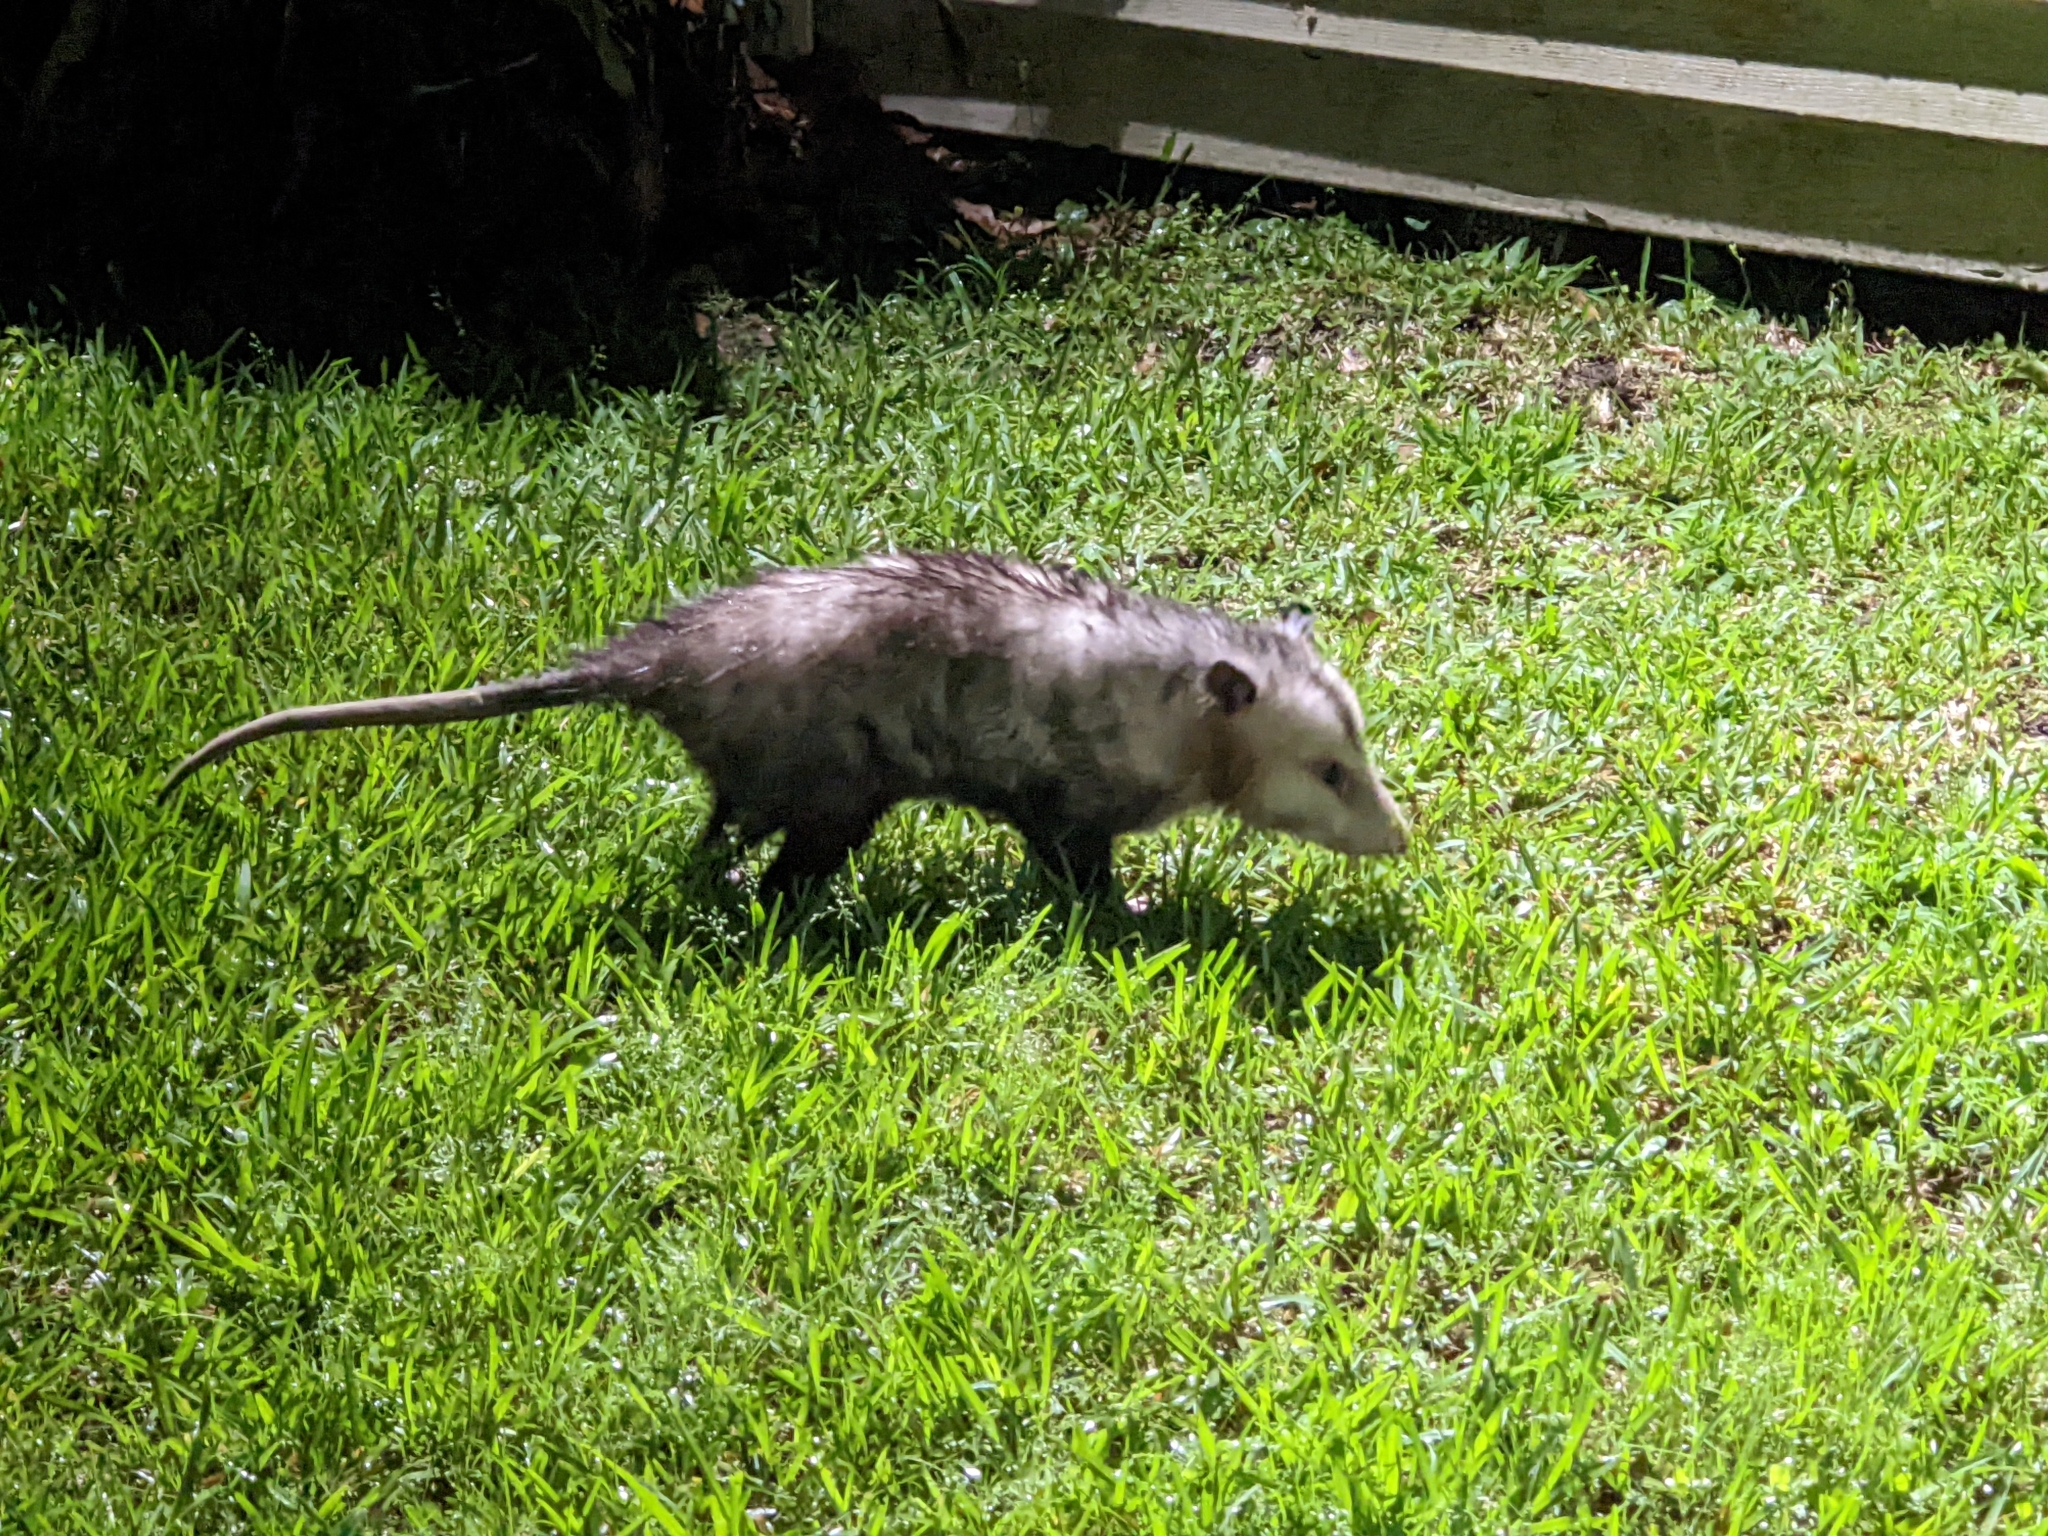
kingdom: Animalia
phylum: Chordata
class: Mammalia
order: Didelphimorphia
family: Didelphidae
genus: Didelphis
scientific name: Didelphis virginiana
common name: Virginia opossum
